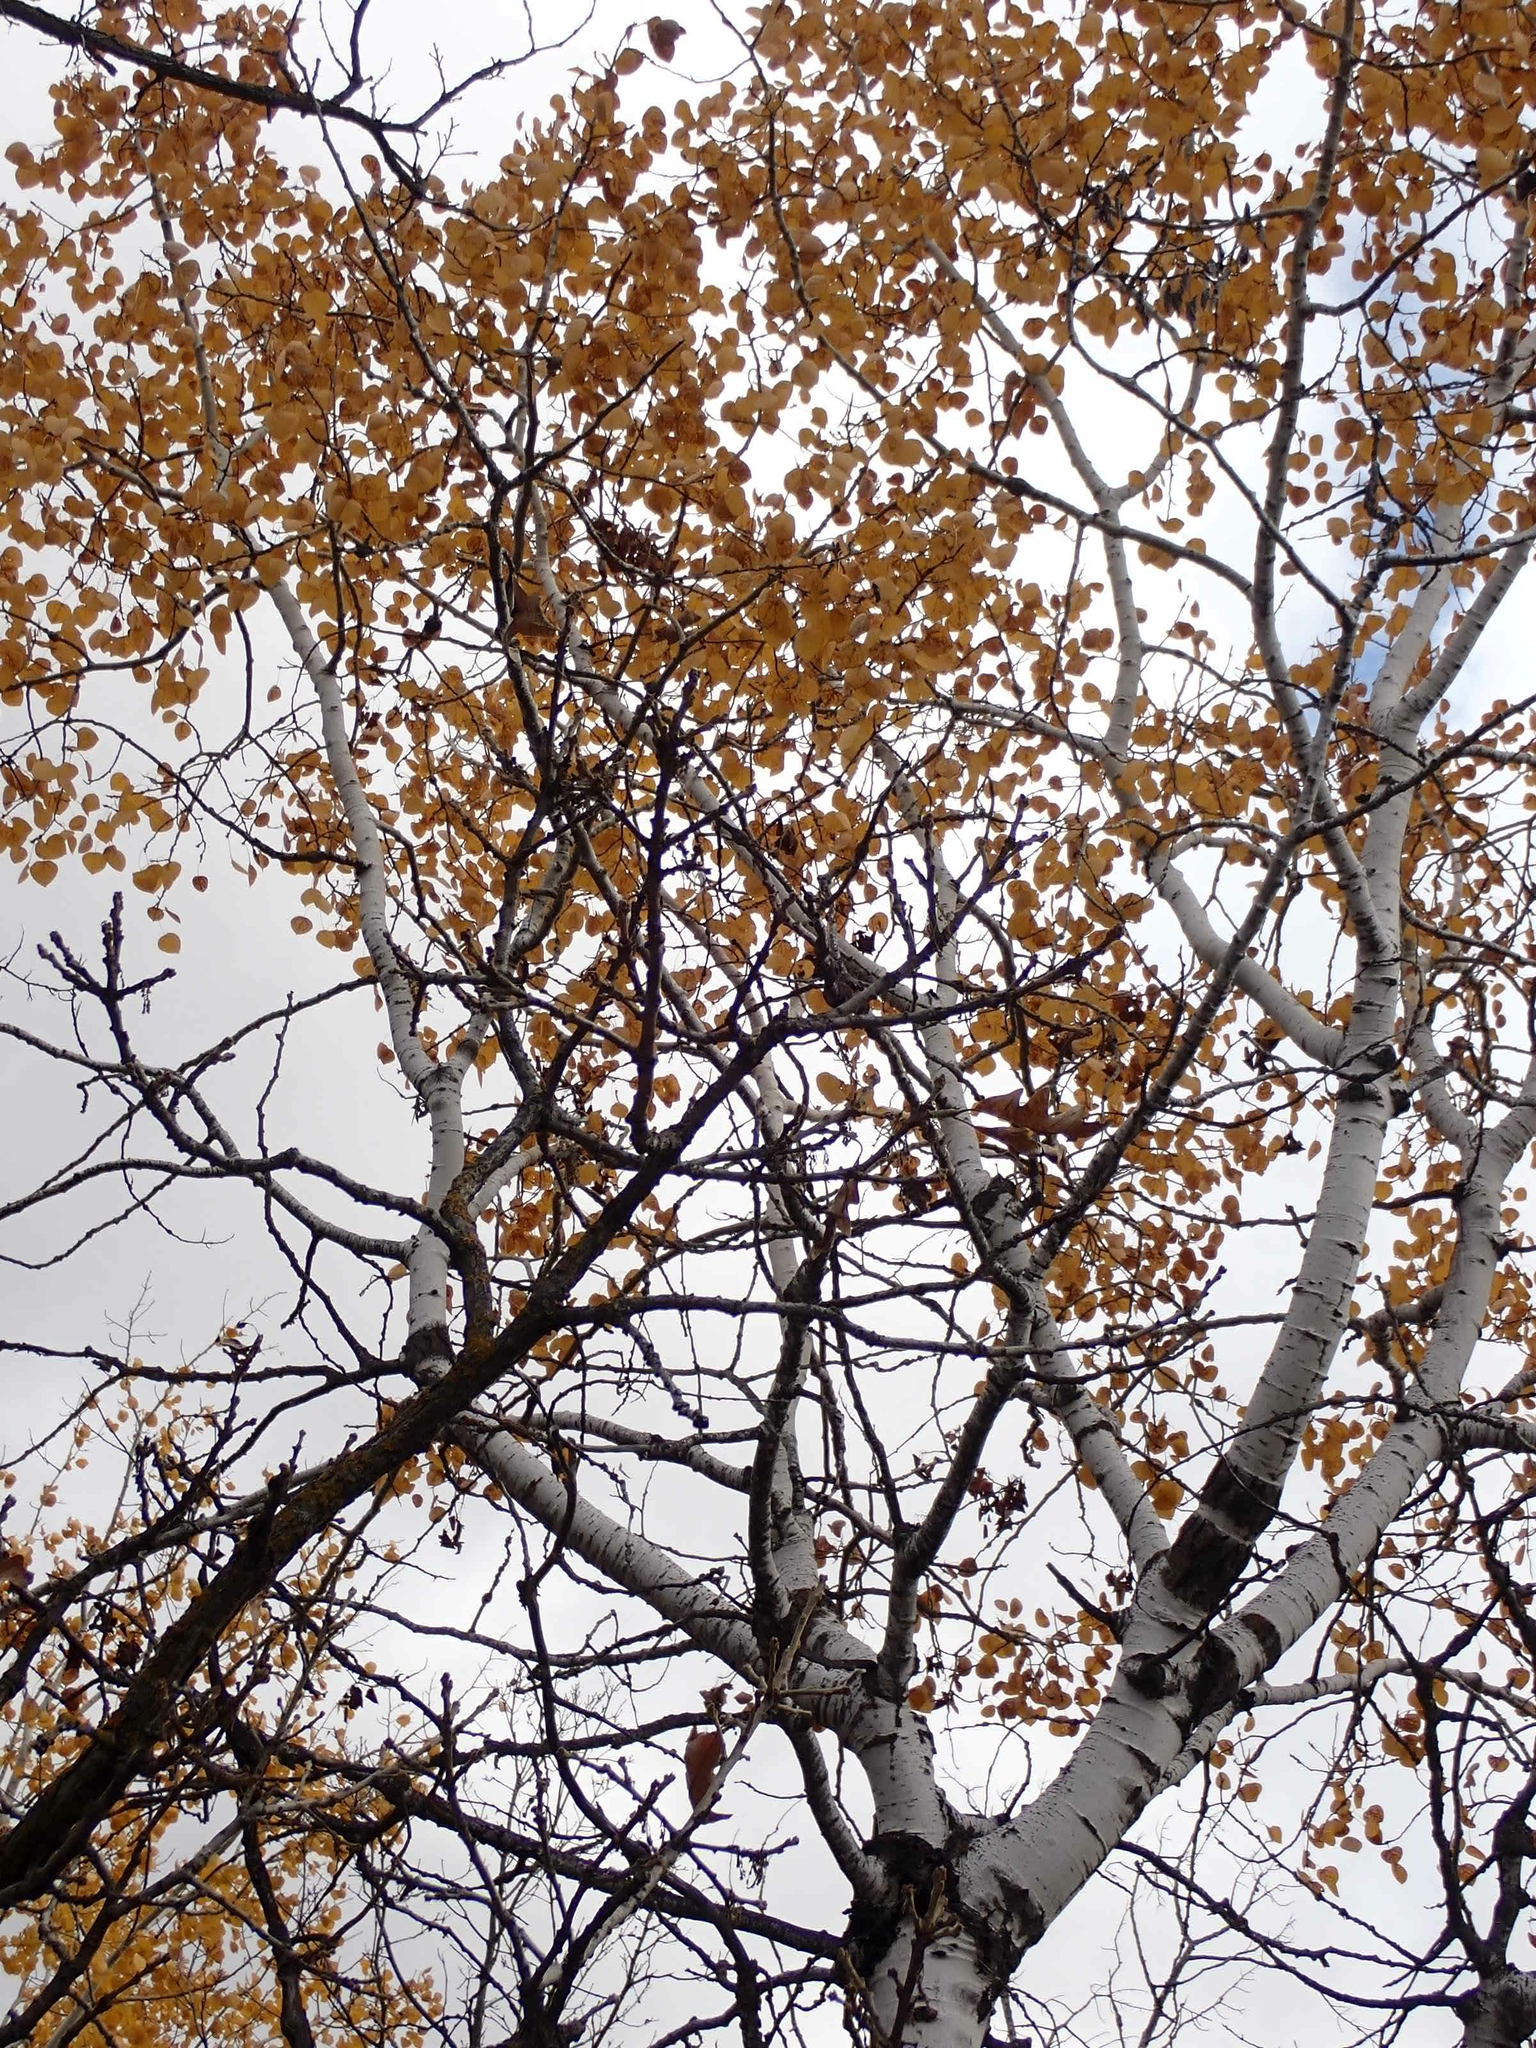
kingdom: Plantae
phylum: Tracheophyta
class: Magnoliopsida
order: Malpighiales
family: Salicaceae
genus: Populus
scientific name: Populus tremuloides
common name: Quaking aspen
